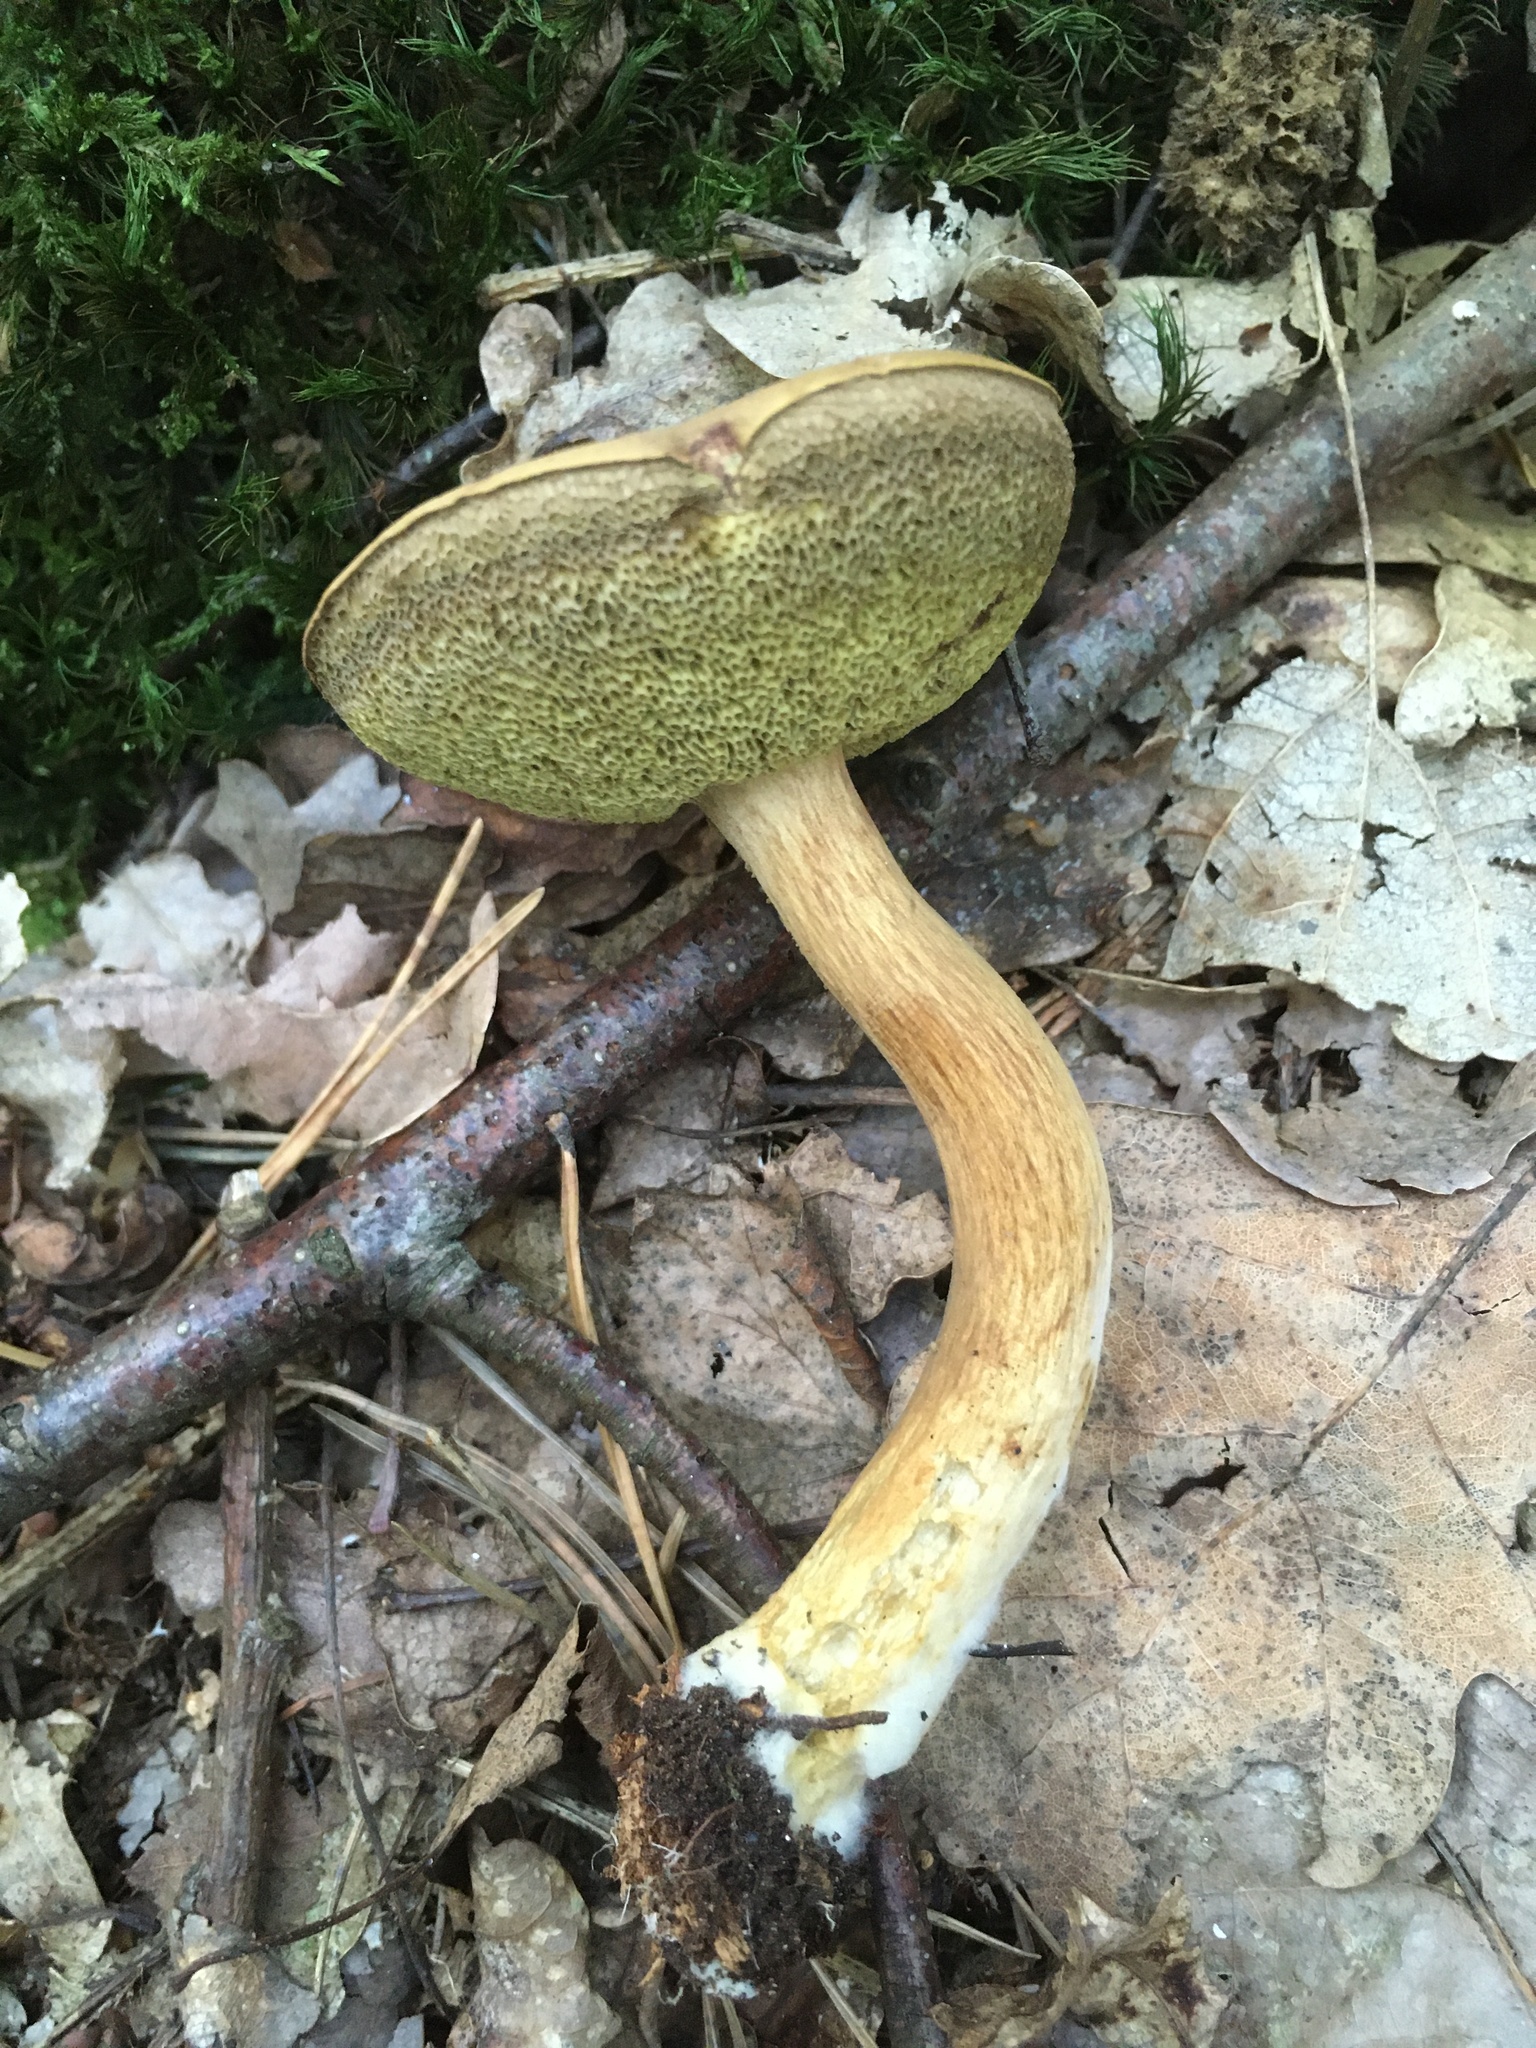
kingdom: Fungi
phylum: Basidiomycota
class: Agaricomycetes
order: Boletales
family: Boletaceae
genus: Imleria
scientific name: Imleria badia
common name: Bay bolete
